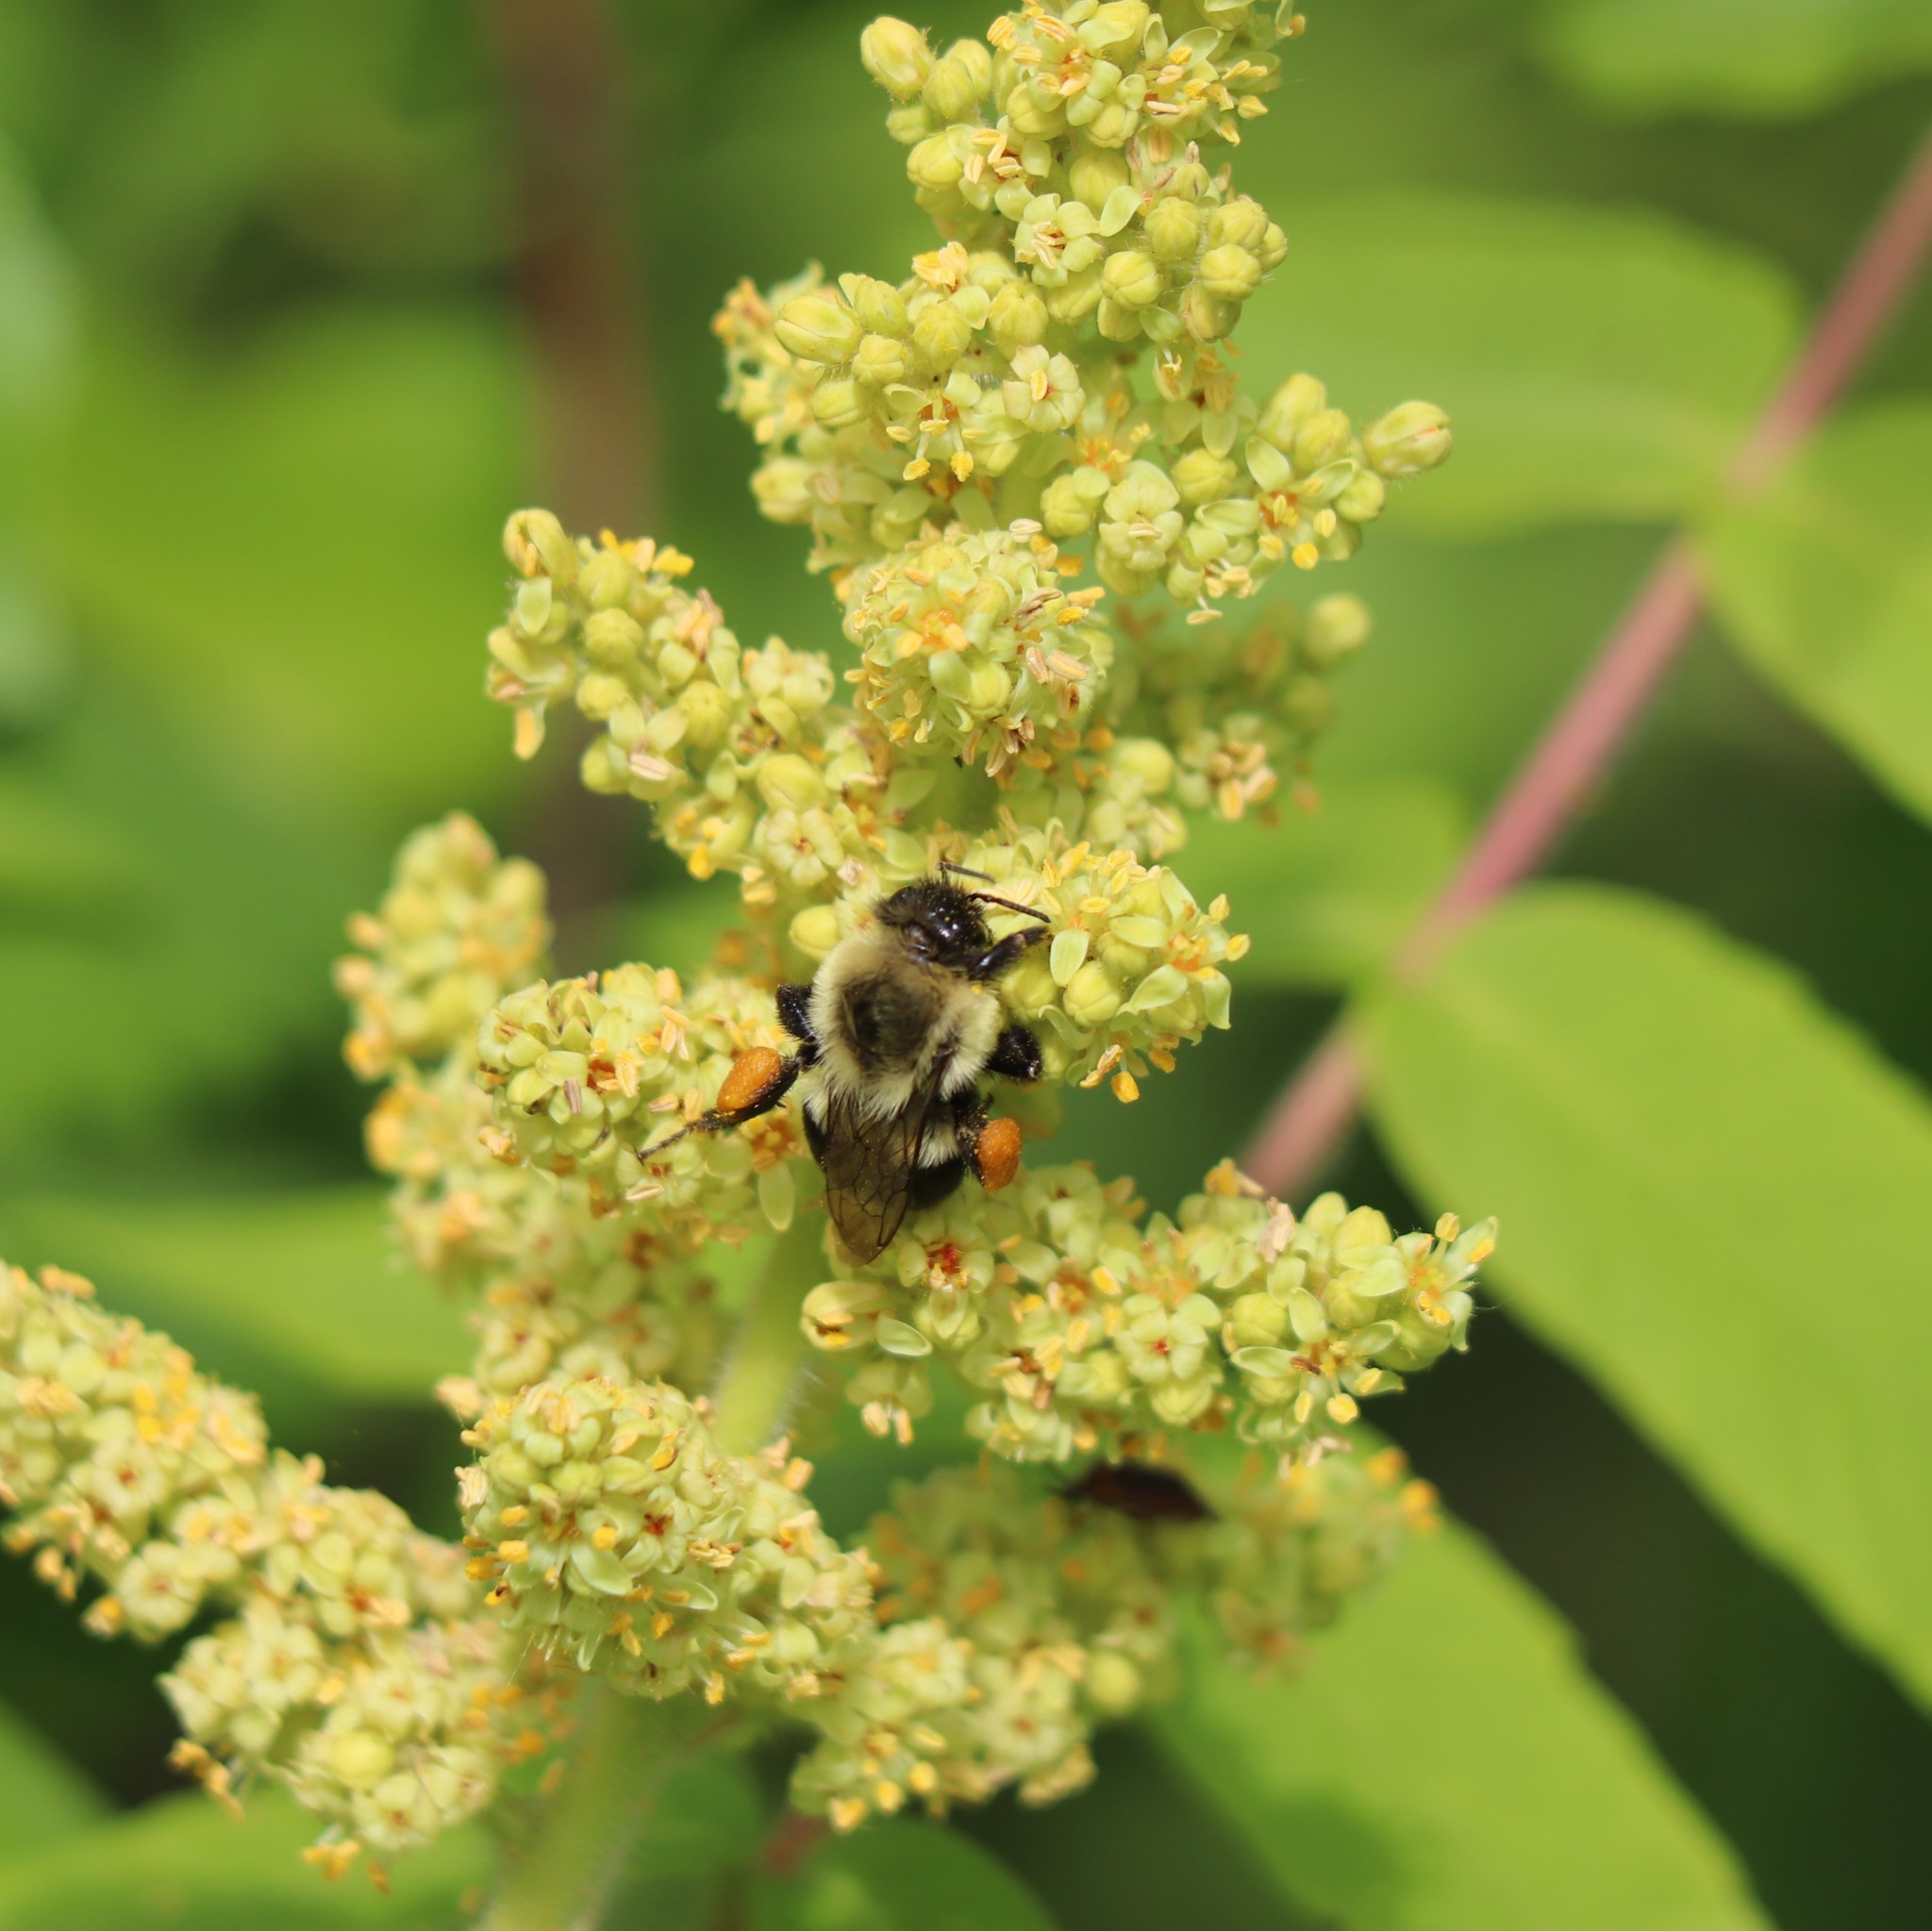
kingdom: Animalia
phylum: Arthropoda
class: Insecta
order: Hymenoptera
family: Apidae
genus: Bombus
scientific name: Bombus impatiens
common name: Common eastern bumble bee
